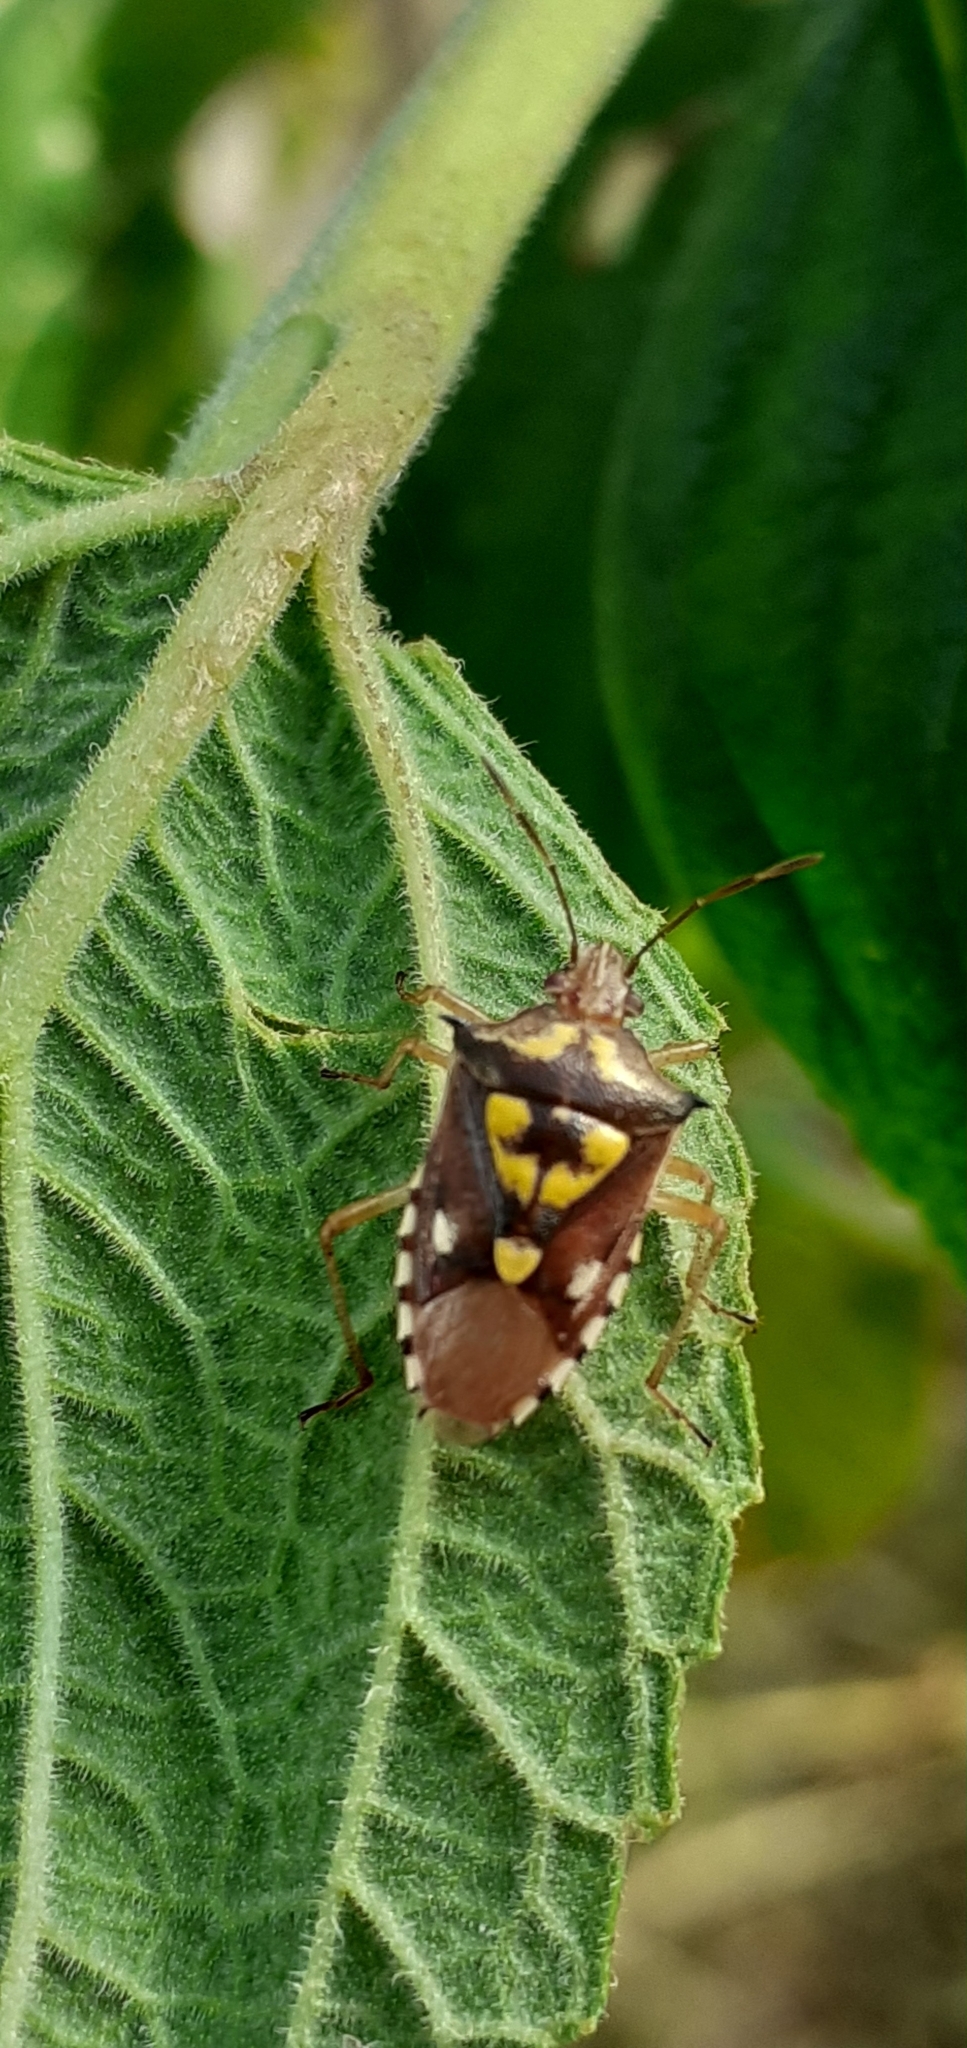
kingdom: Animalia
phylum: Arthropoda
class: Insecta
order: Hemiptera
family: Pentatomidae
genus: Mormidea
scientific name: Mormidea ypsilon
